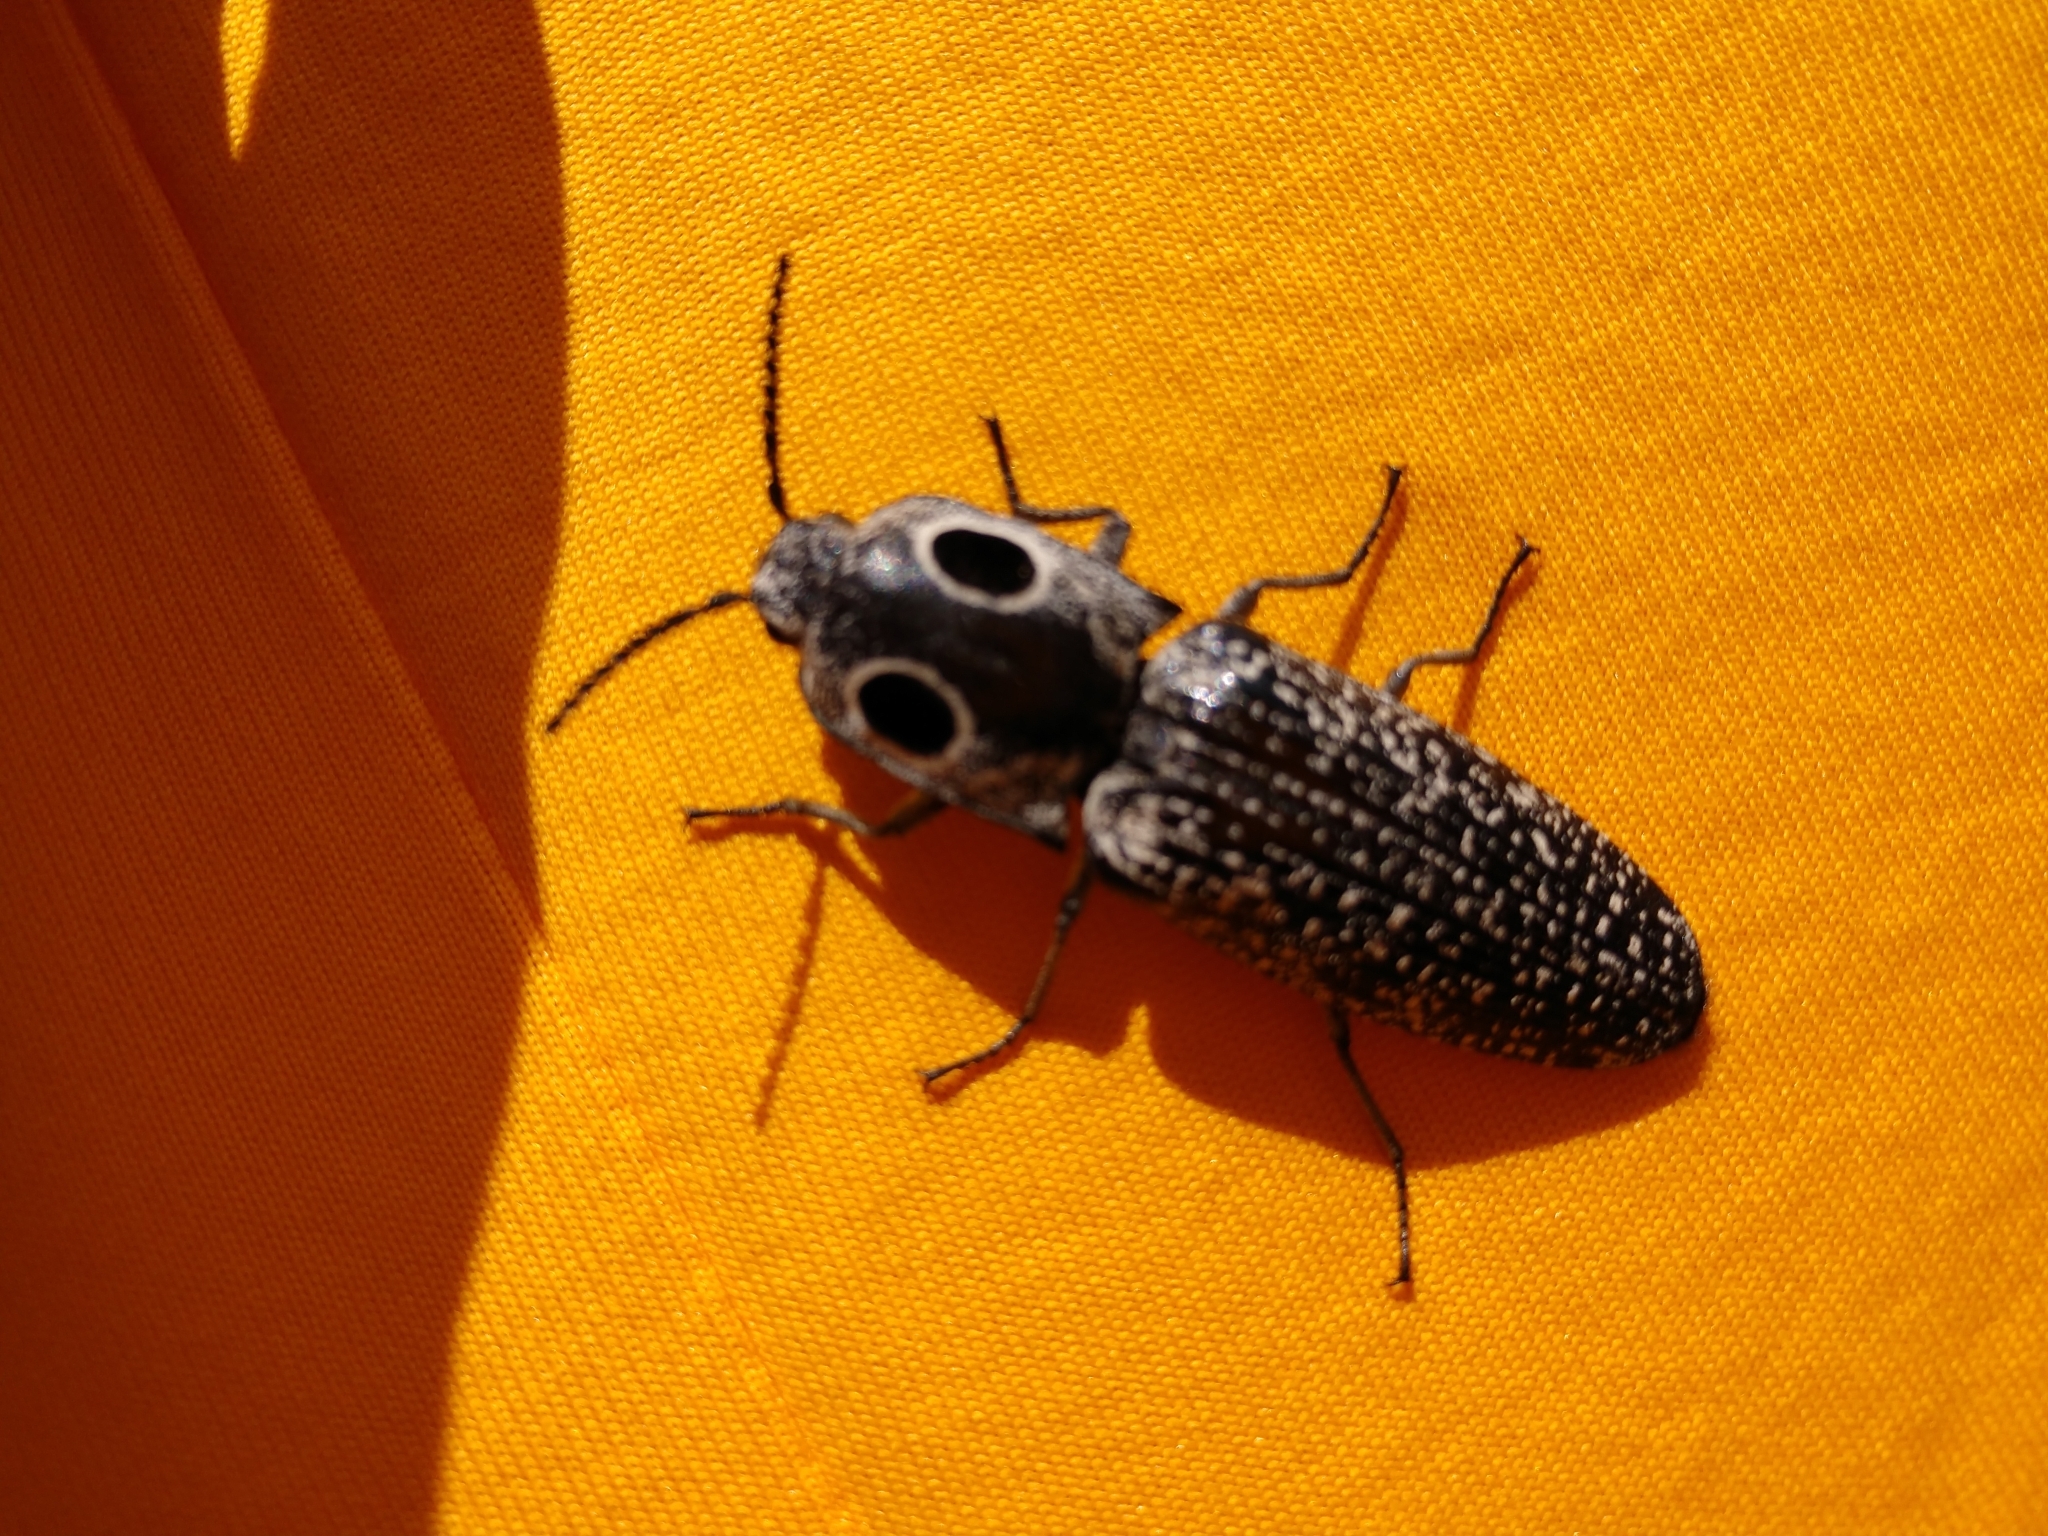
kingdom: Animalia
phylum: Arthropoda
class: Insecta
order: Coleoptera
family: Elateridae
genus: Alaus
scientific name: Alaus oculatus
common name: Eastern eyed click beetle
